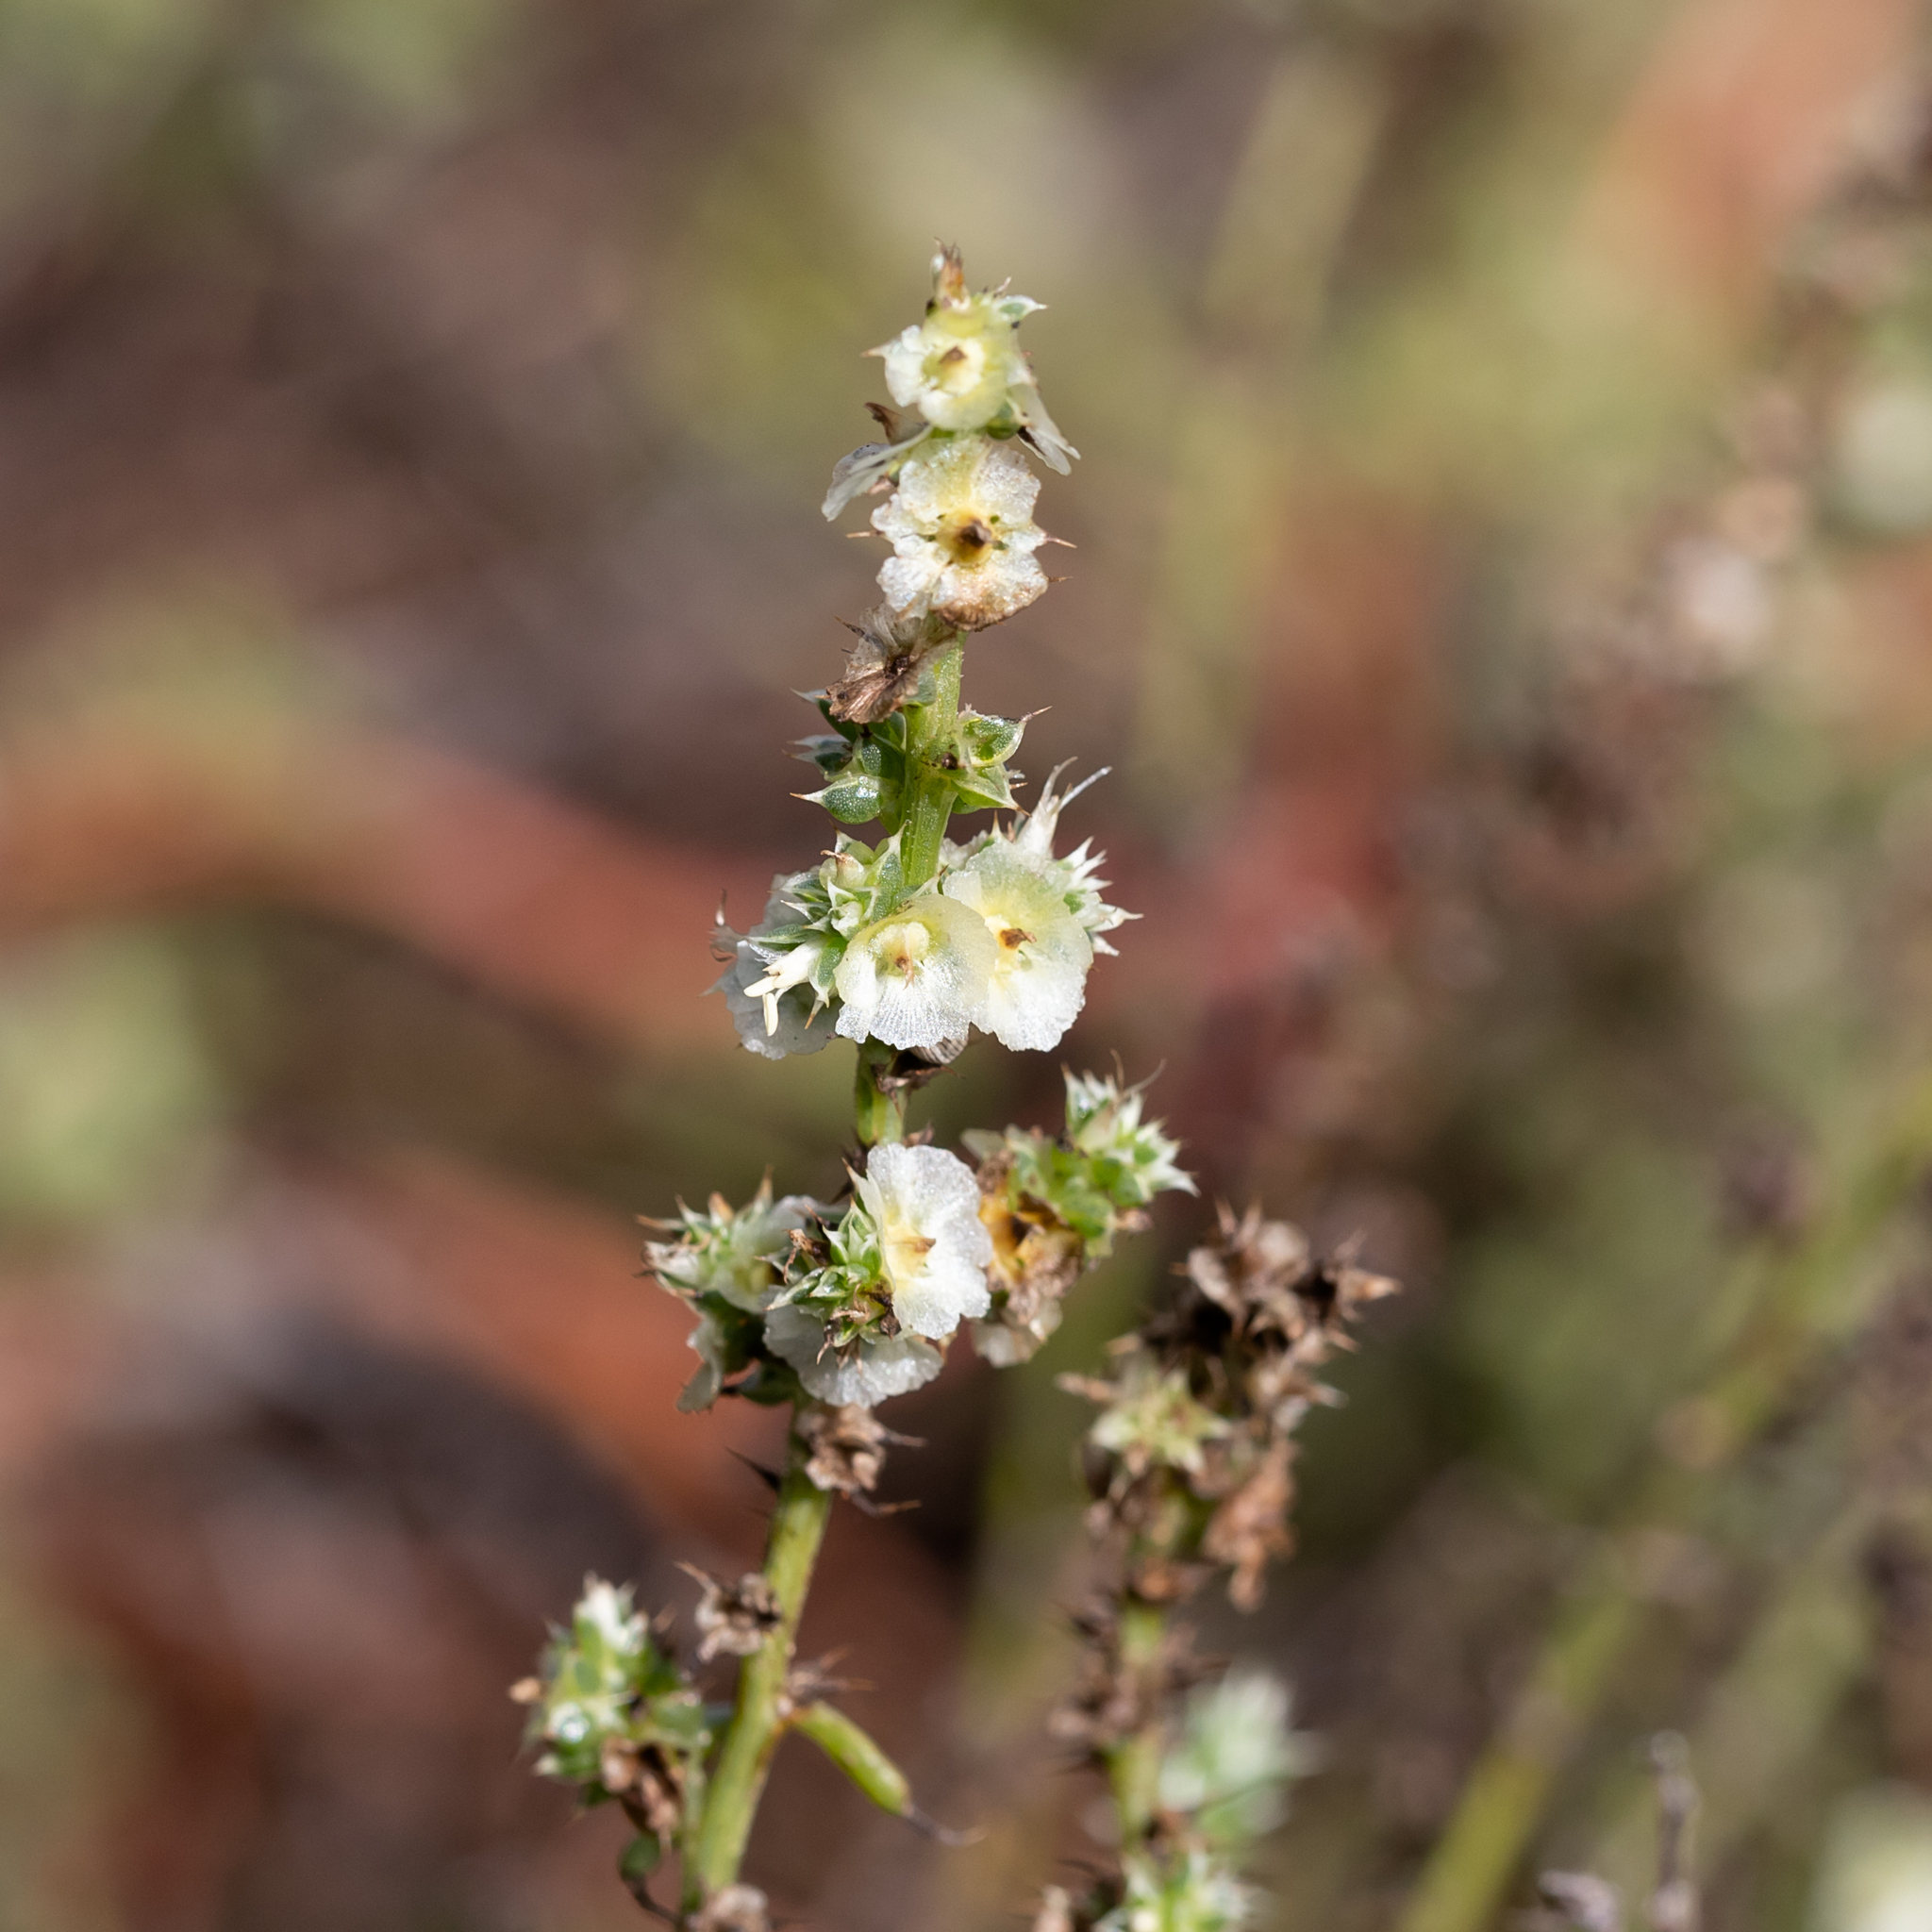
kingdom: Plantae
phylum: Tracheophyta
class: Magnoliopsida
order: Caryophyllales
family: Amaranthaceae
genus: Salsola
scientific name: Salsola australis
